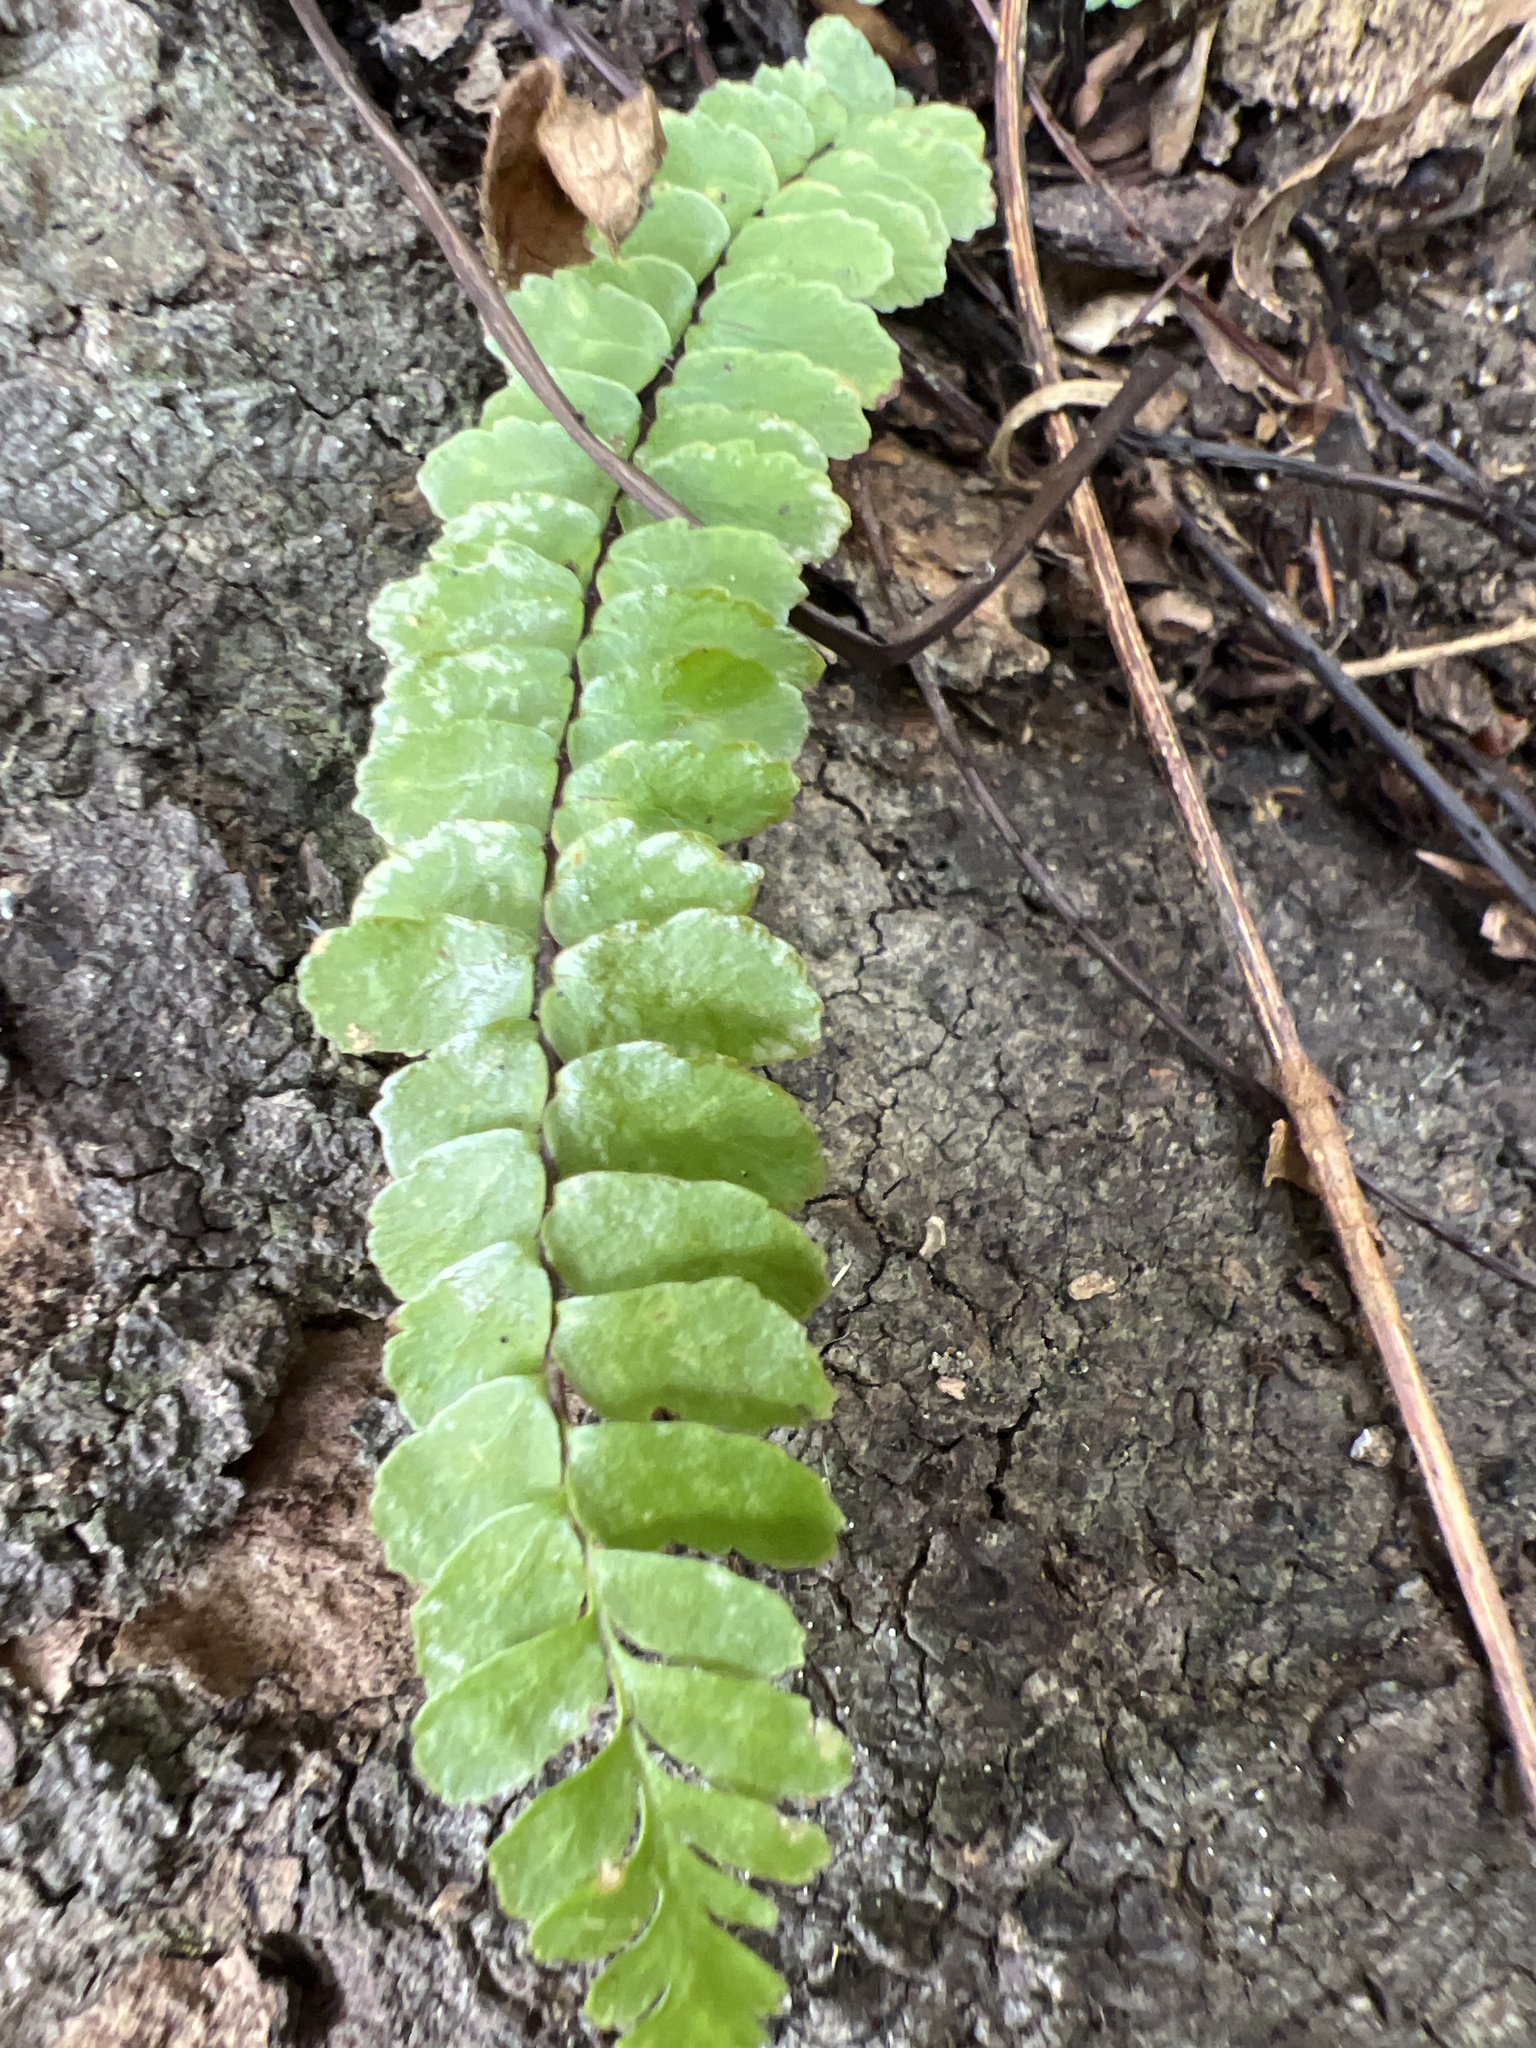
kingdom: Plantae
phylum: Tracheophyta
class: Polypodiopsida
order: Polypodiales
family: Aspleniaceae
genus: Asplenium
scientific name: Asplenium platyneuron
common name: Ebony spleenwort
